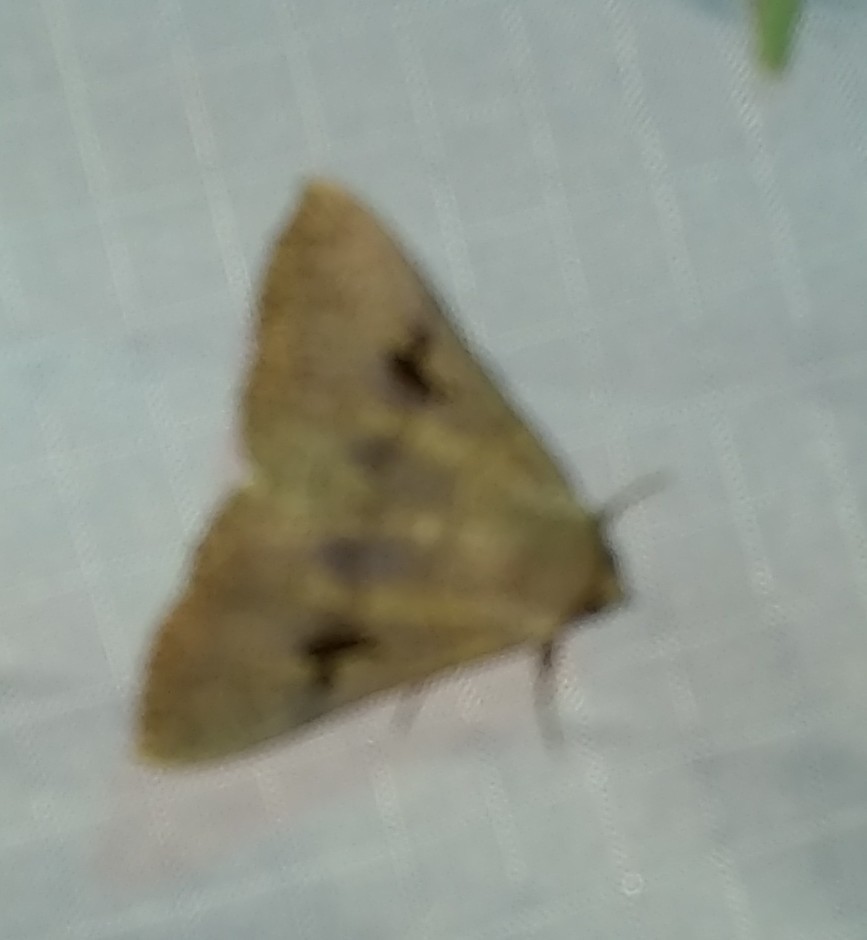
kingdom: Animalia
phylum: Arthropoda
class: Insecta
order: Lepidoptera
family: Erebidae
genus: Panopoda
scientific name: Panopoda carneicosta
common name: Brown panopoda moth
